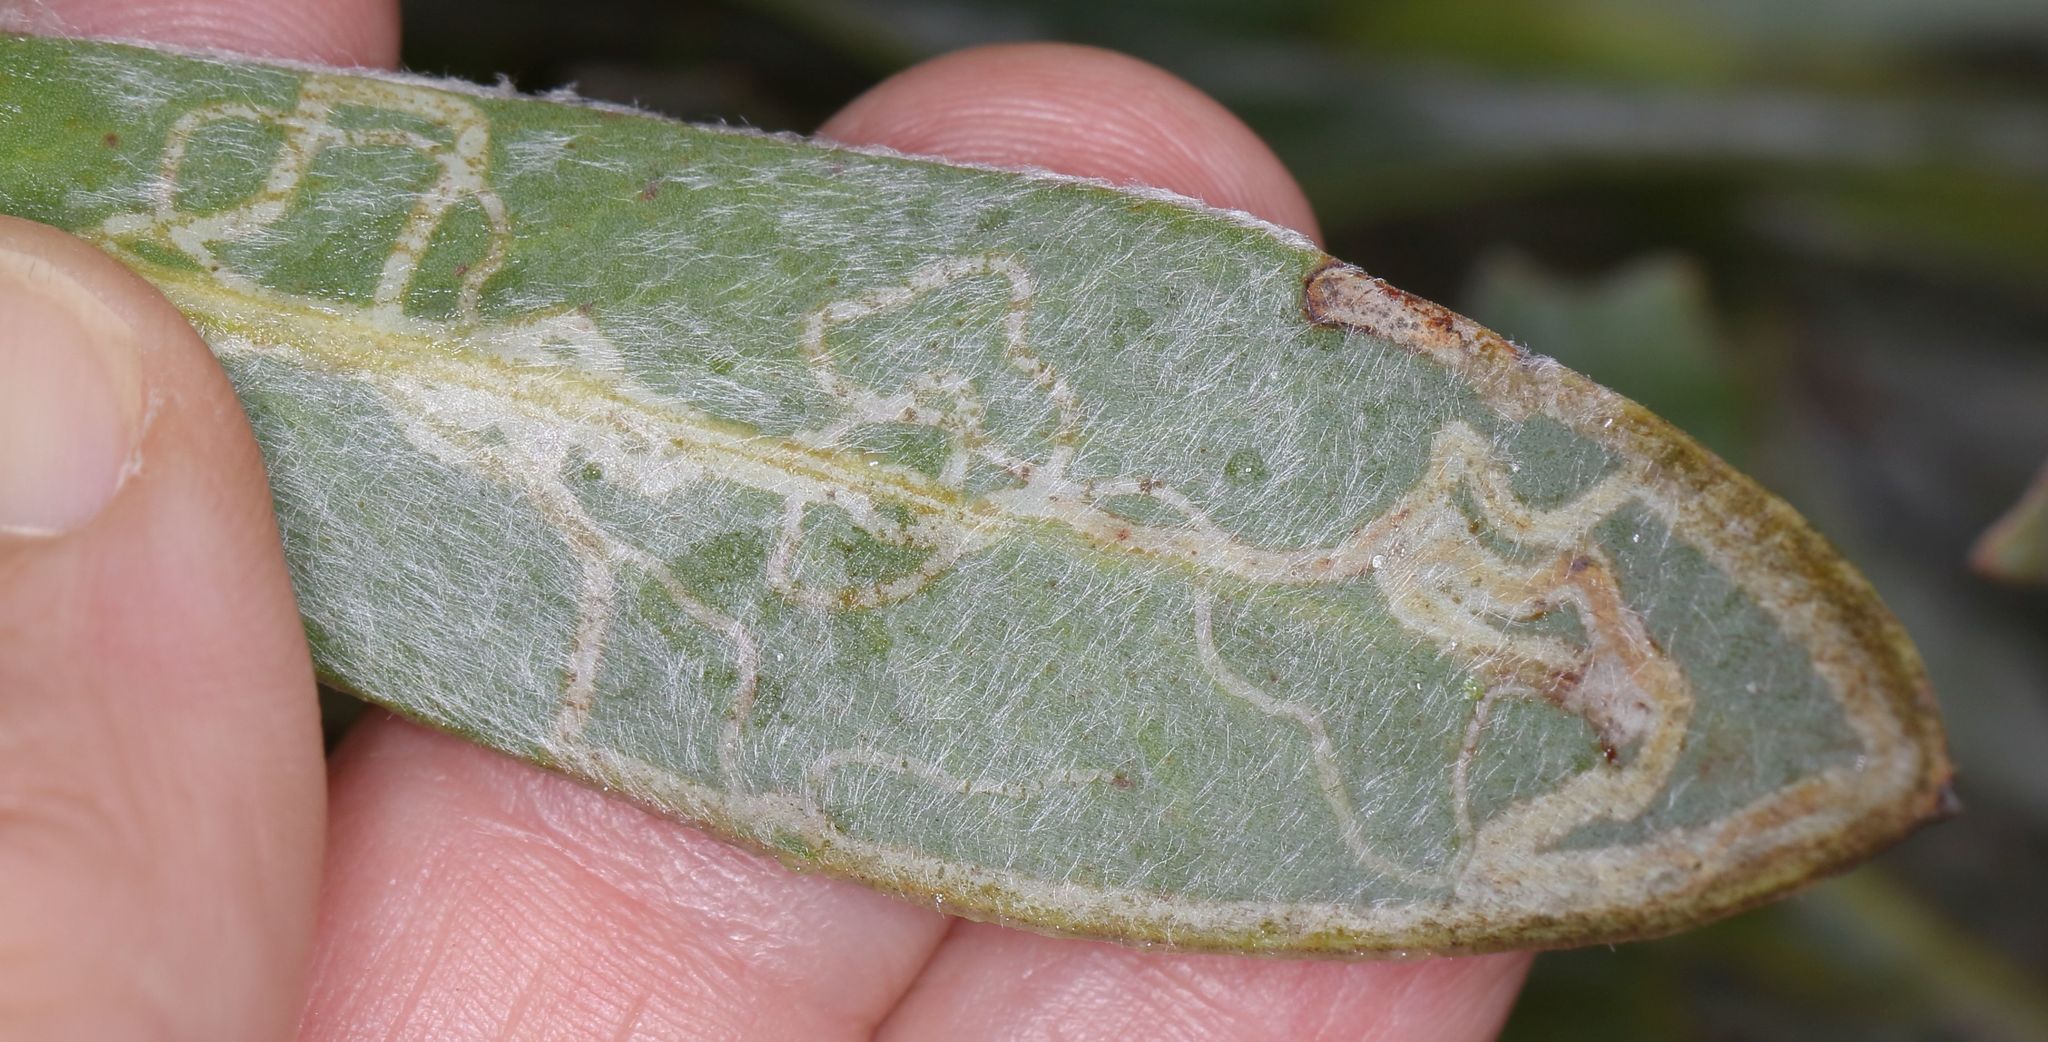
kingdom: Plantae
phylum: Tracheophyta
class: Magnoliopsida
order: Proteales
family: Proteaceae
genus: Protea
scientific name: Protea roupelliae
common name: Silver sugarbush
